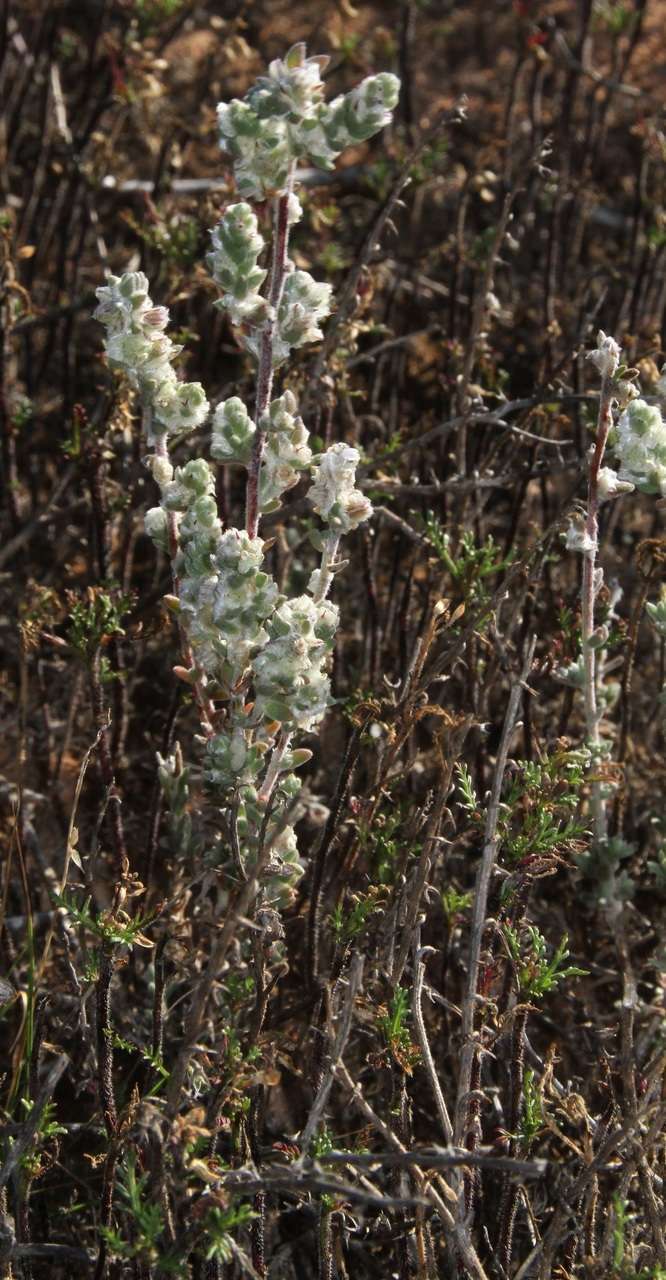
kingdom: Plantae
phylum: Tracheophyta
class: Magnoliopsida
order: Caryophyllales
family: Amaranthaceae
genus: Maireana
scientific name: Maireana sclerolaenoides
